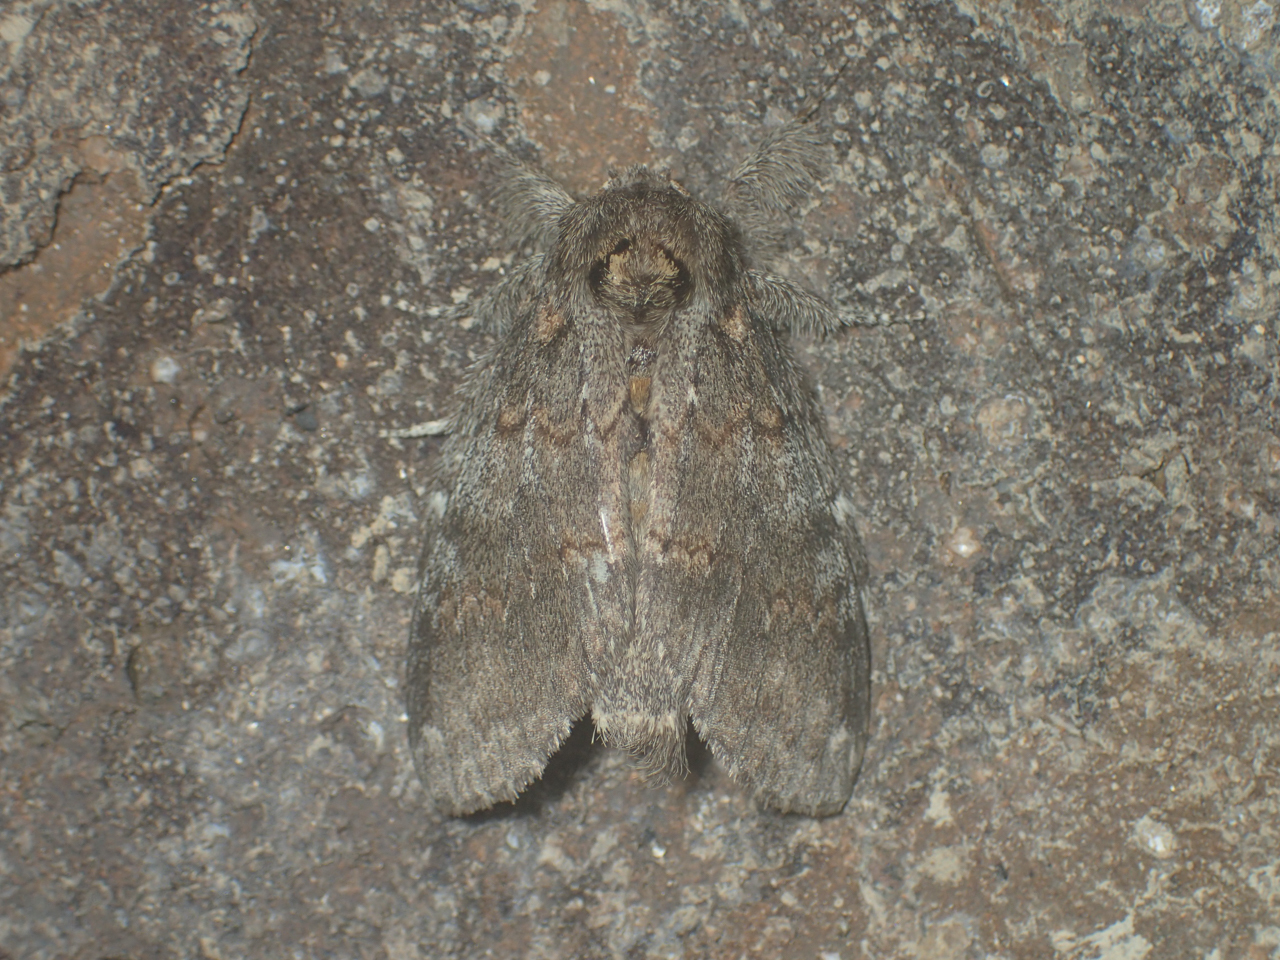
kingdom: Animalia
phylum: Arthropoda
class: Insecta
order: Lepidoptera
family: Notodontidae
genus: Peridea
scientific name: Peridea angulosa
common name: Angulose prominent
